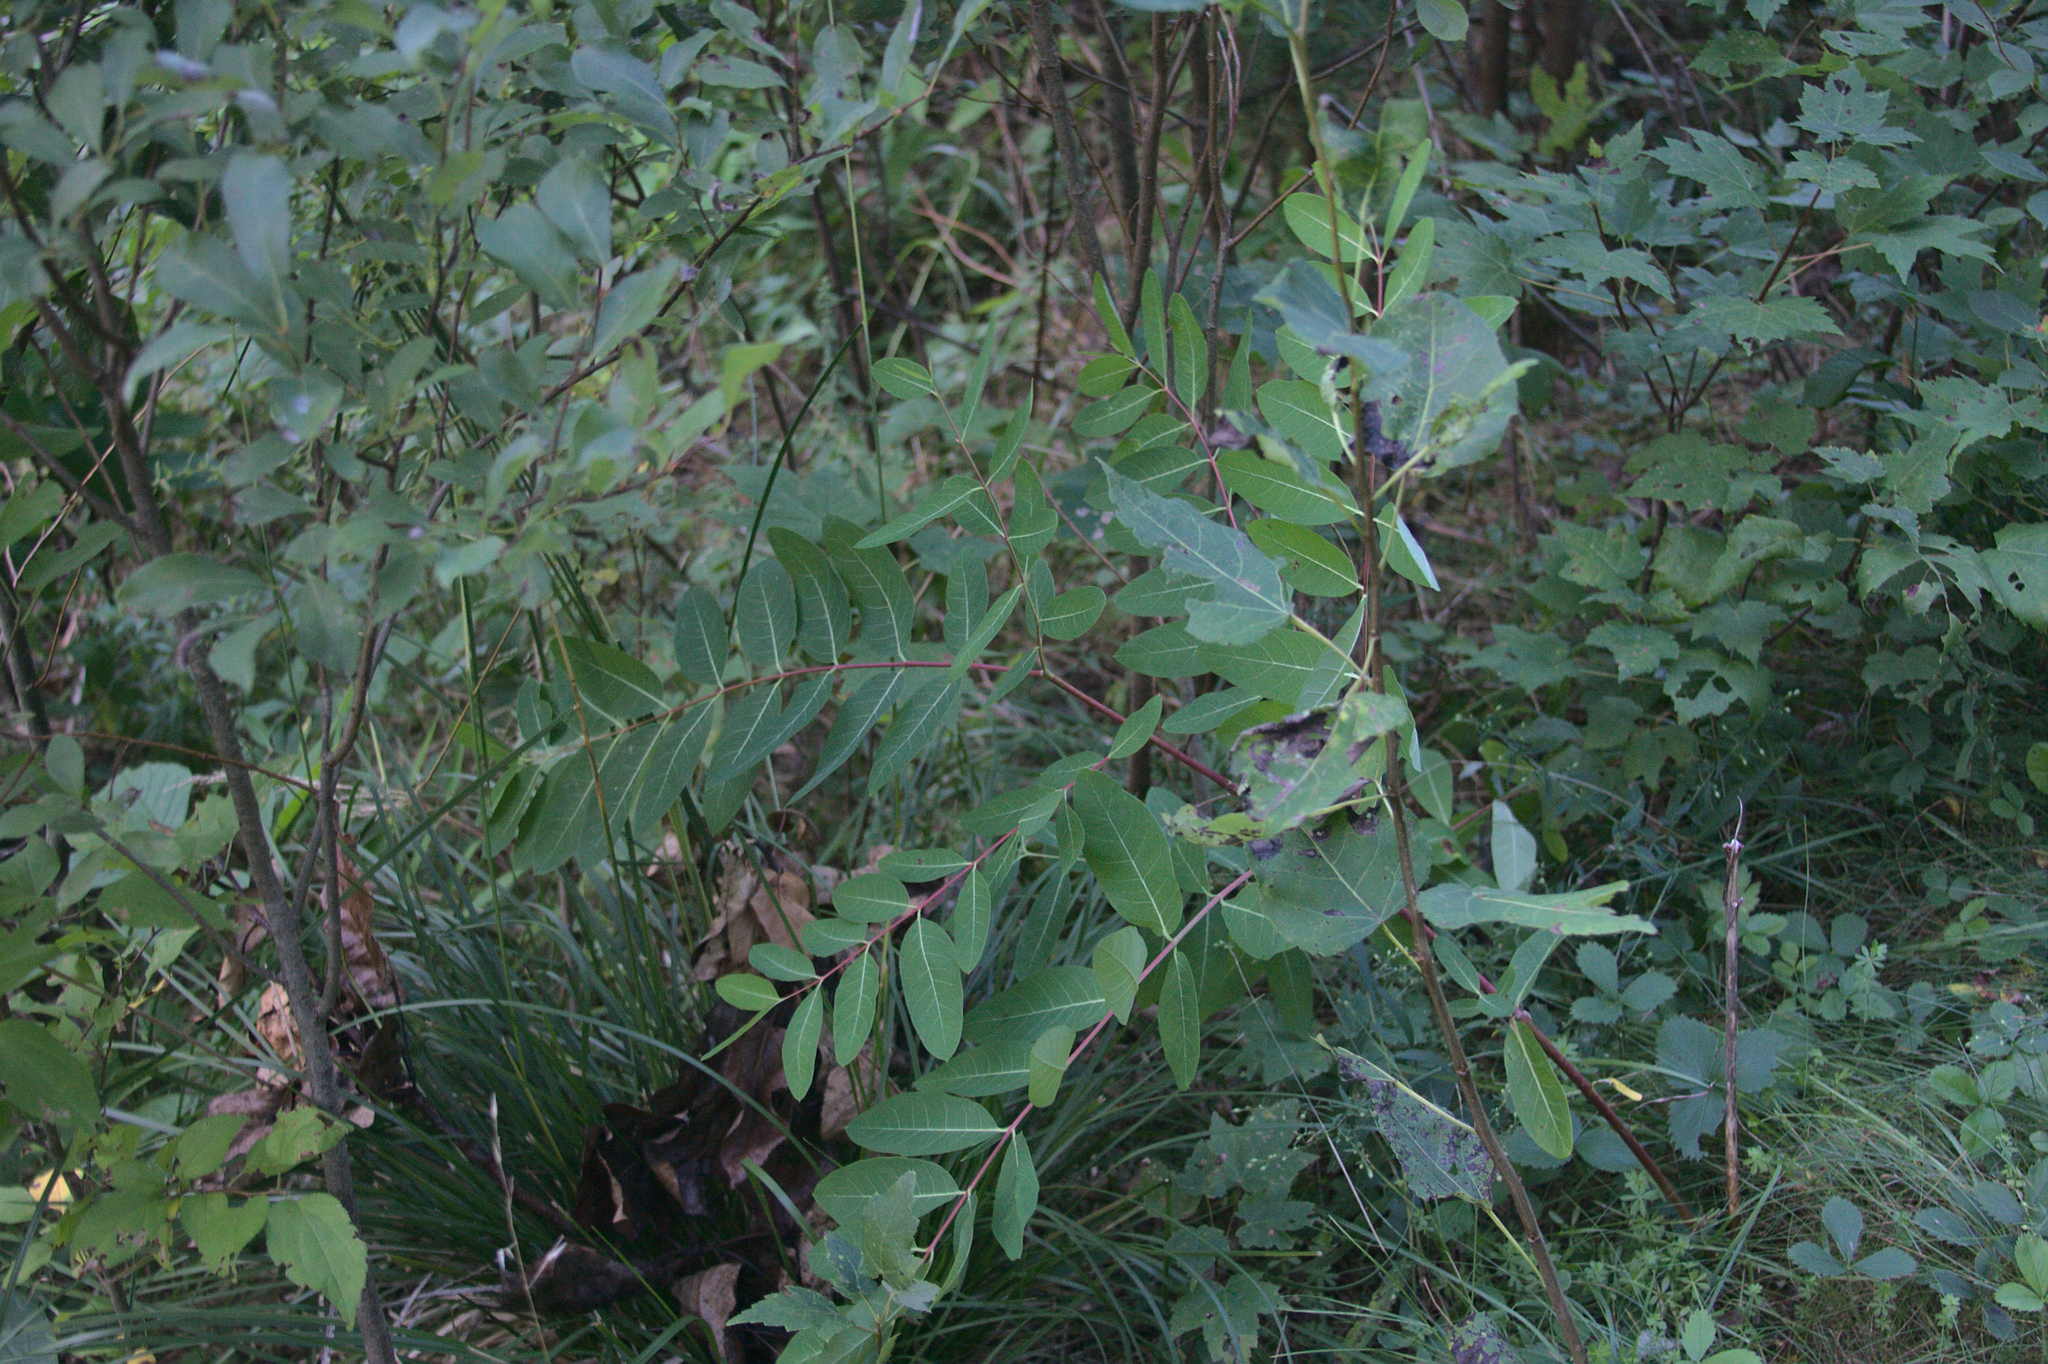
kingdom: Plantae
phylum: Tracheophyta
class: Magnoliopsida
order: Gentianales
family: Apocynaceae
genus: Apocynum
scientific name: Apocynum cannabinum
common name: Hemp dogbane
